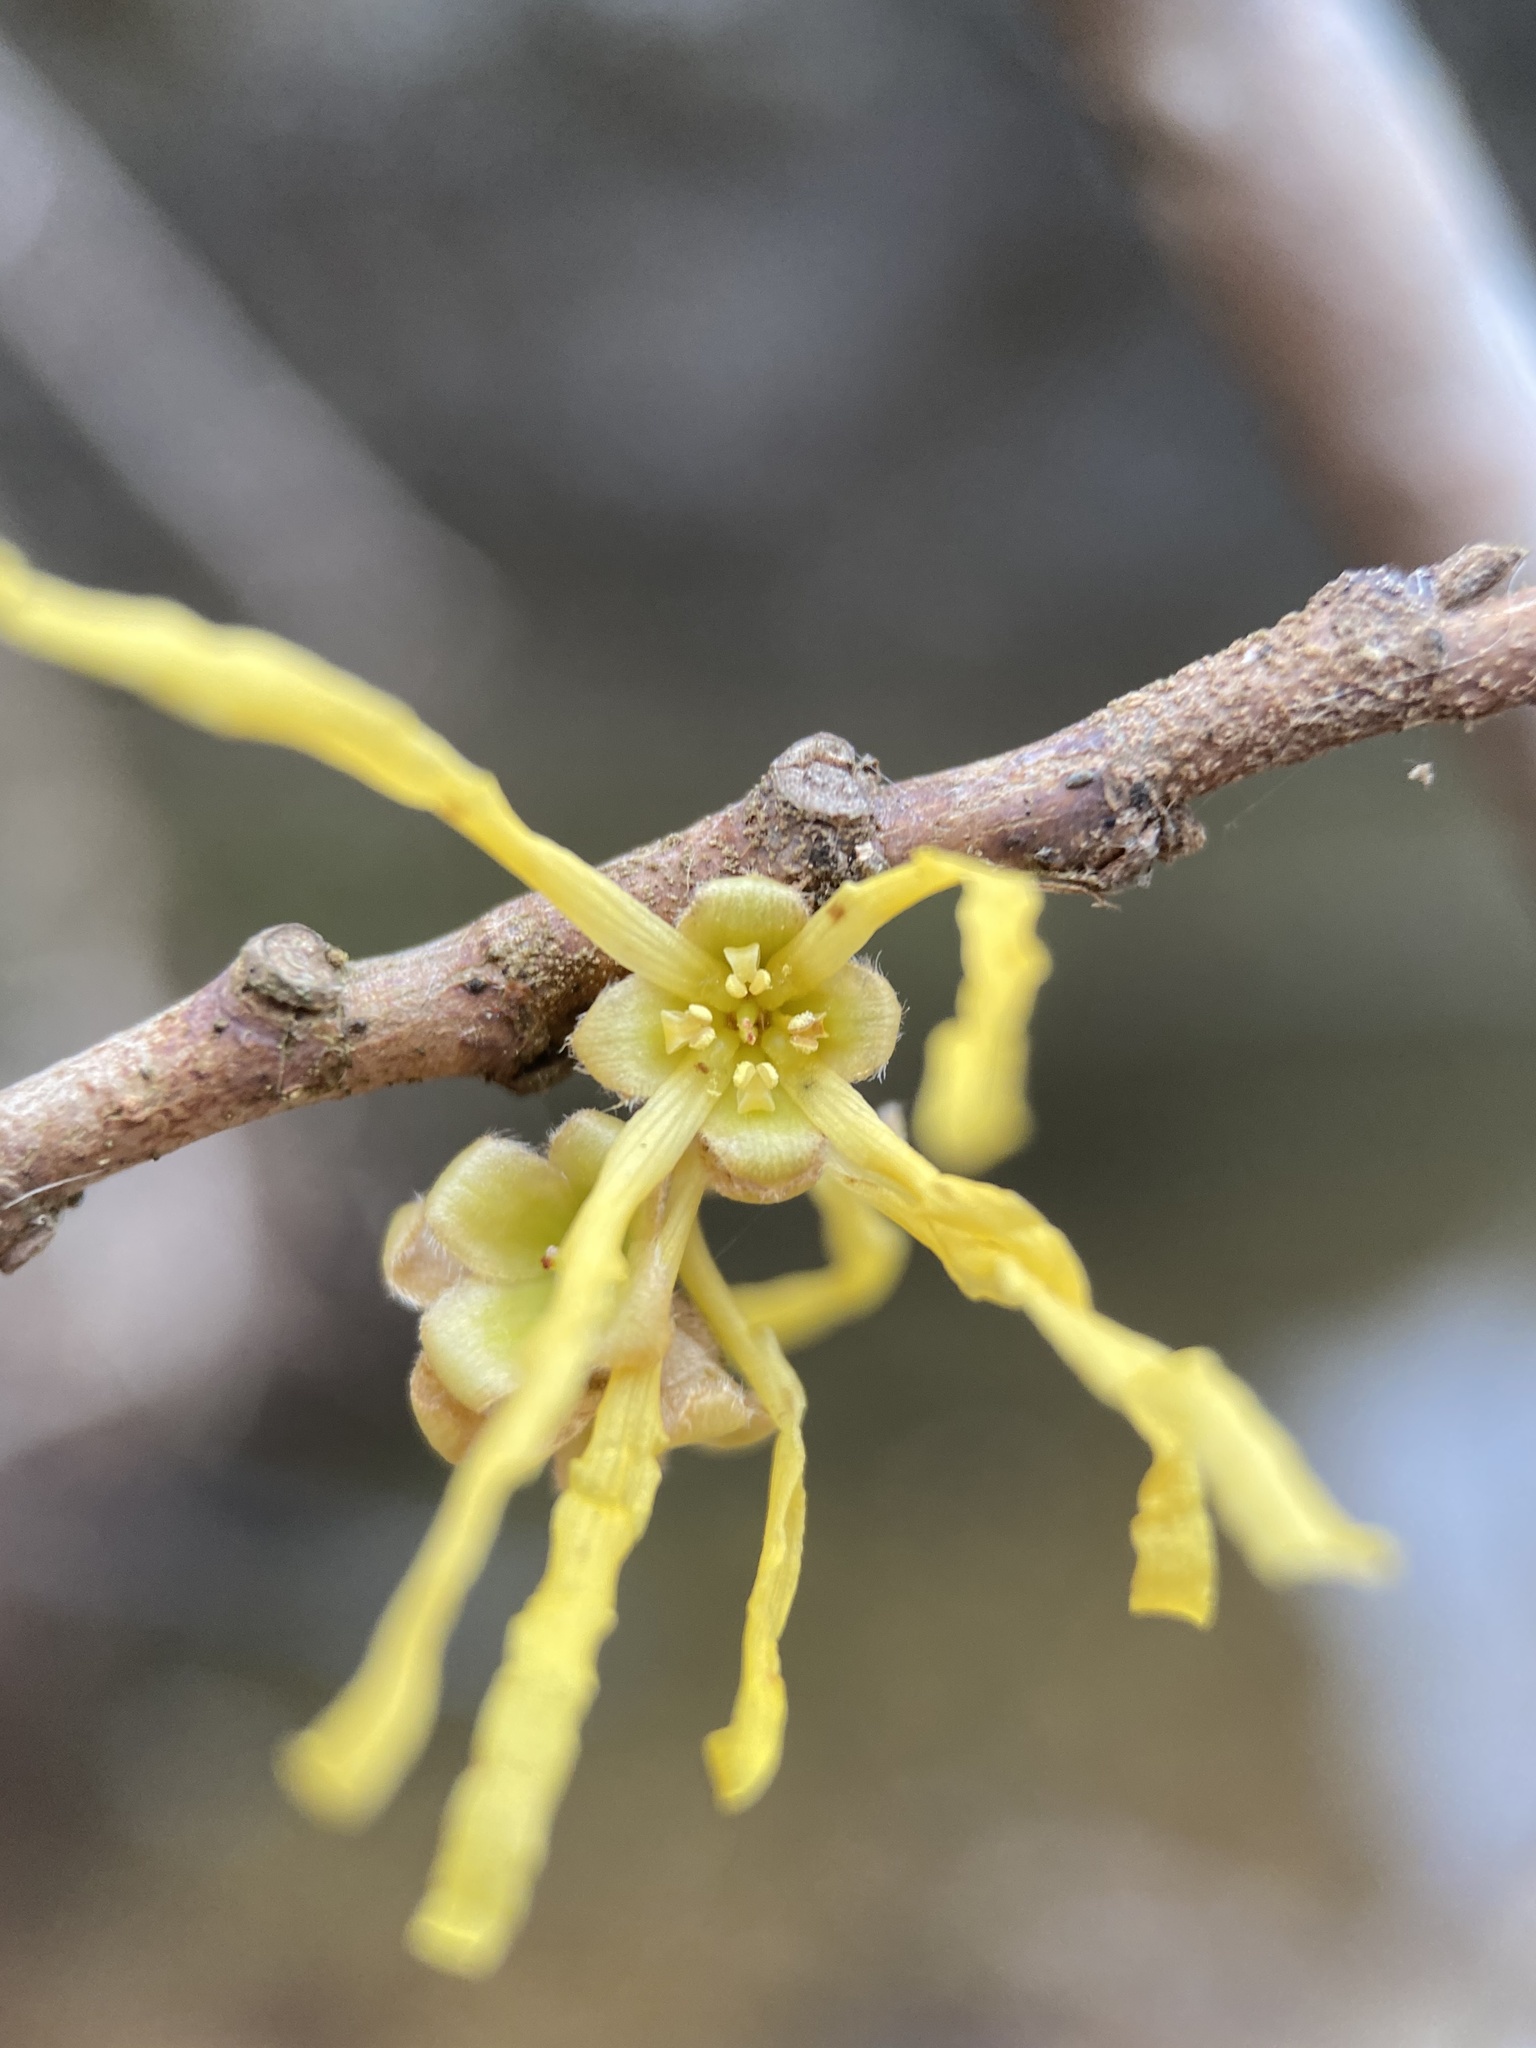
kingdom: Plantae
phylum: Tracheophyta
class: Magnoliopsida
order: Saxifragales
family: Hamamelidaceae
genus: Hamamelis
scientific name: Hamamelis virginiana
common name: Witch-hazel
